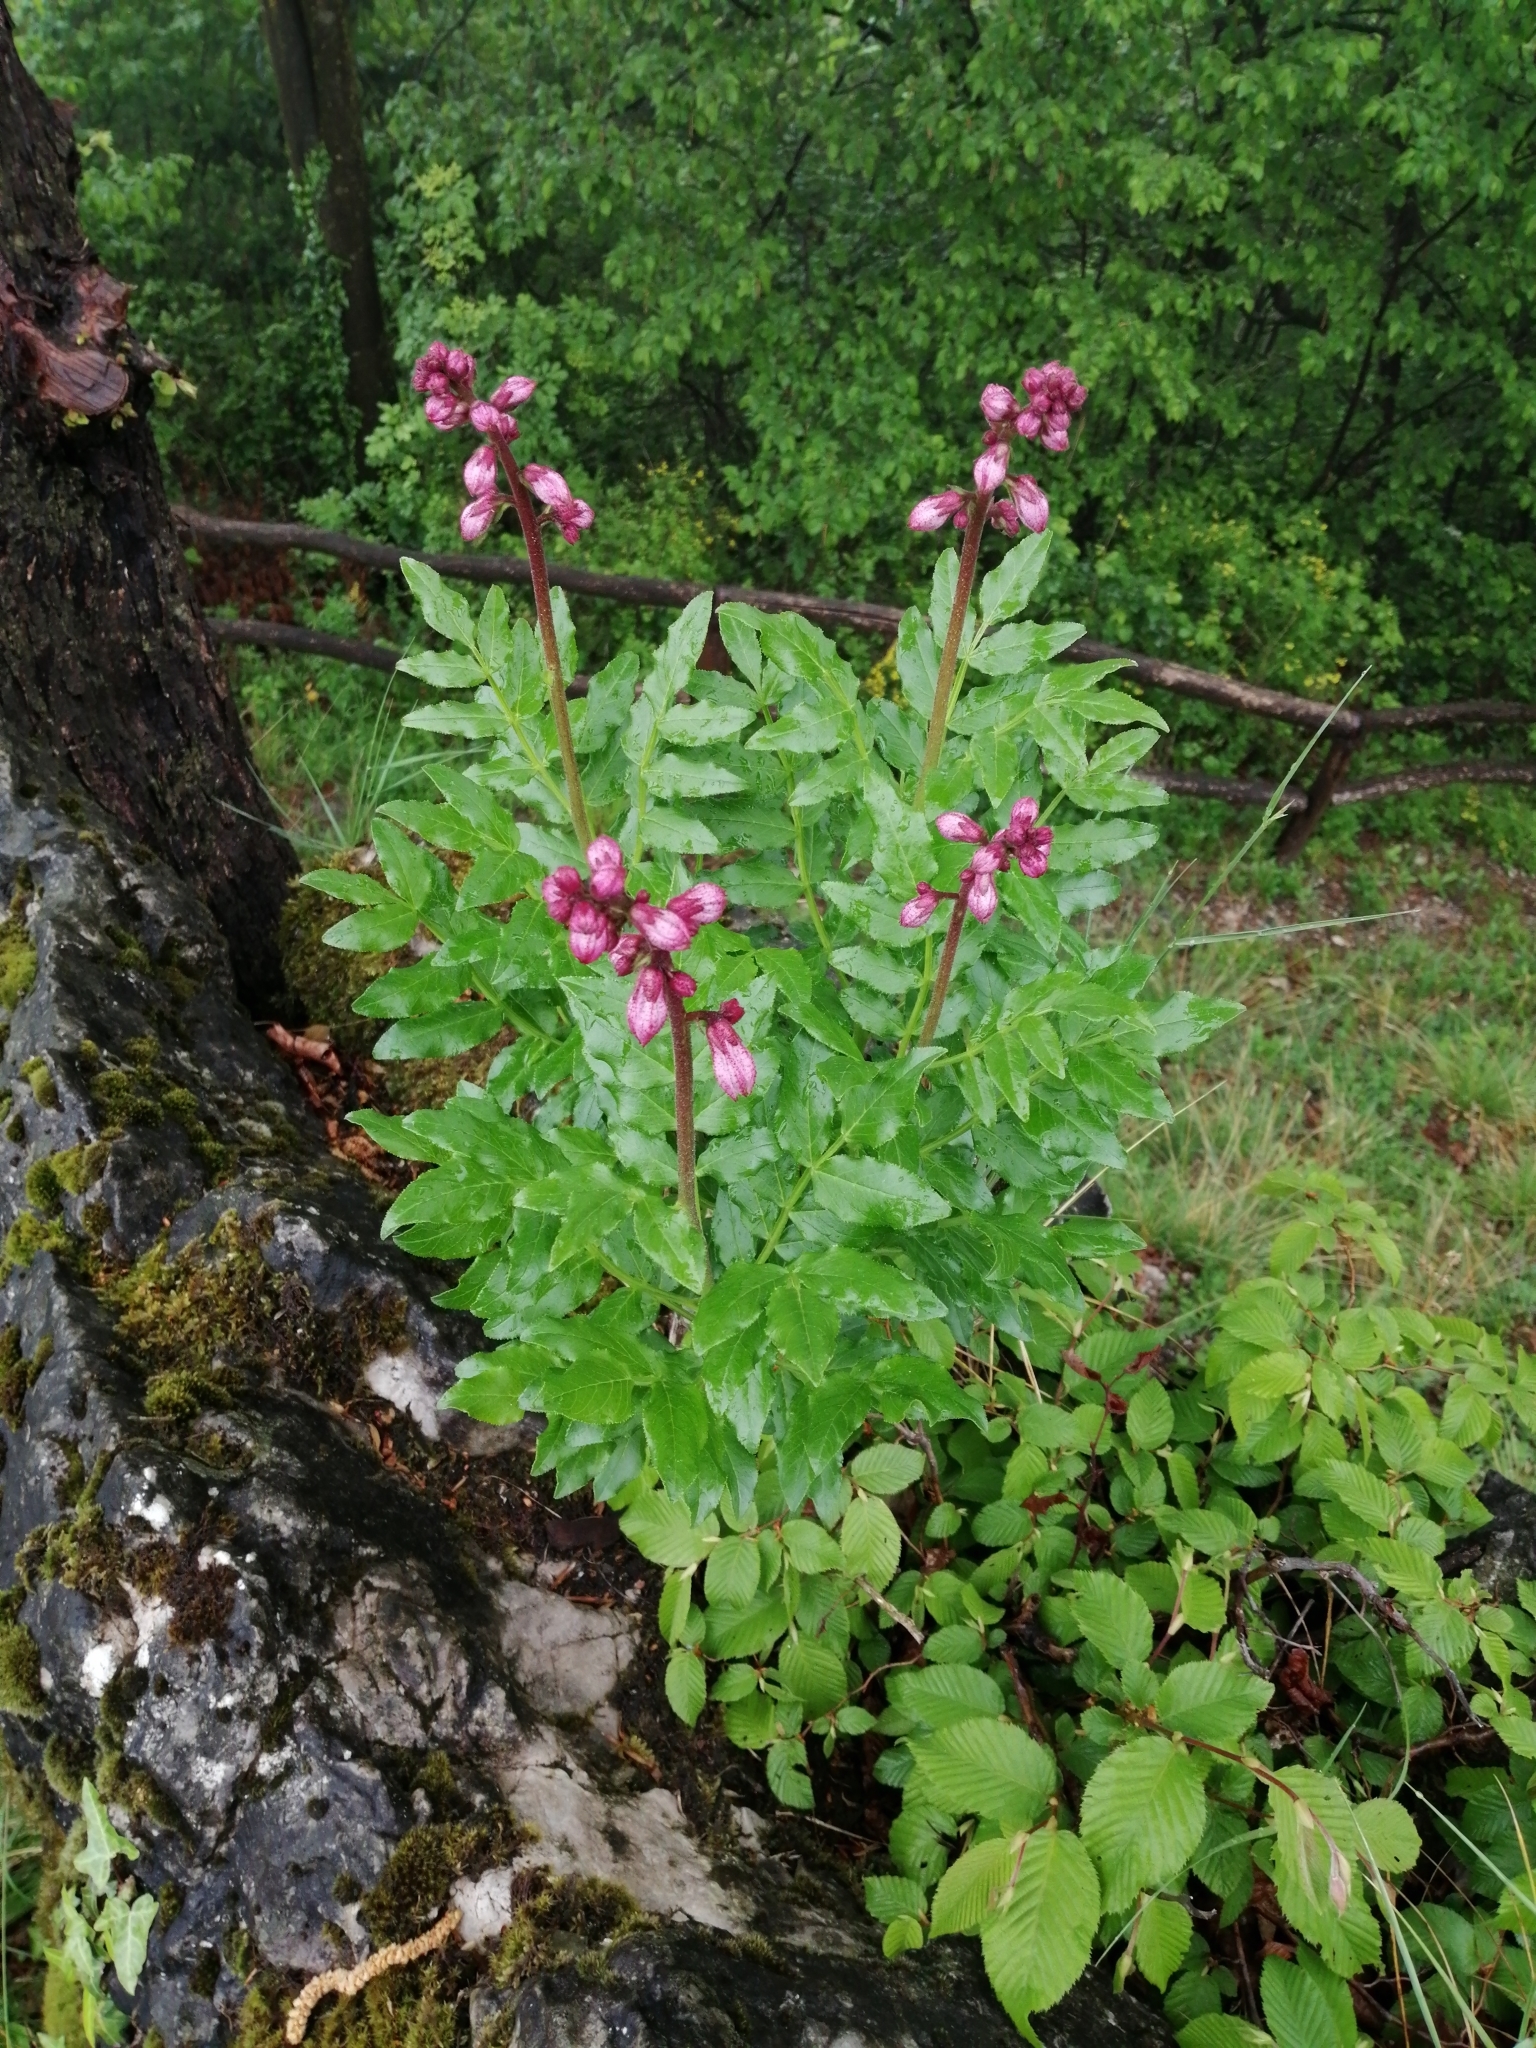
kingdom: Plantae
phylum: Tracheophyta
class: Magnoliopsida
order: Sapindales
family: Rutaceae
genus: Dictamnus
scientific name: Dictamnus albus
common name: Gasplant
